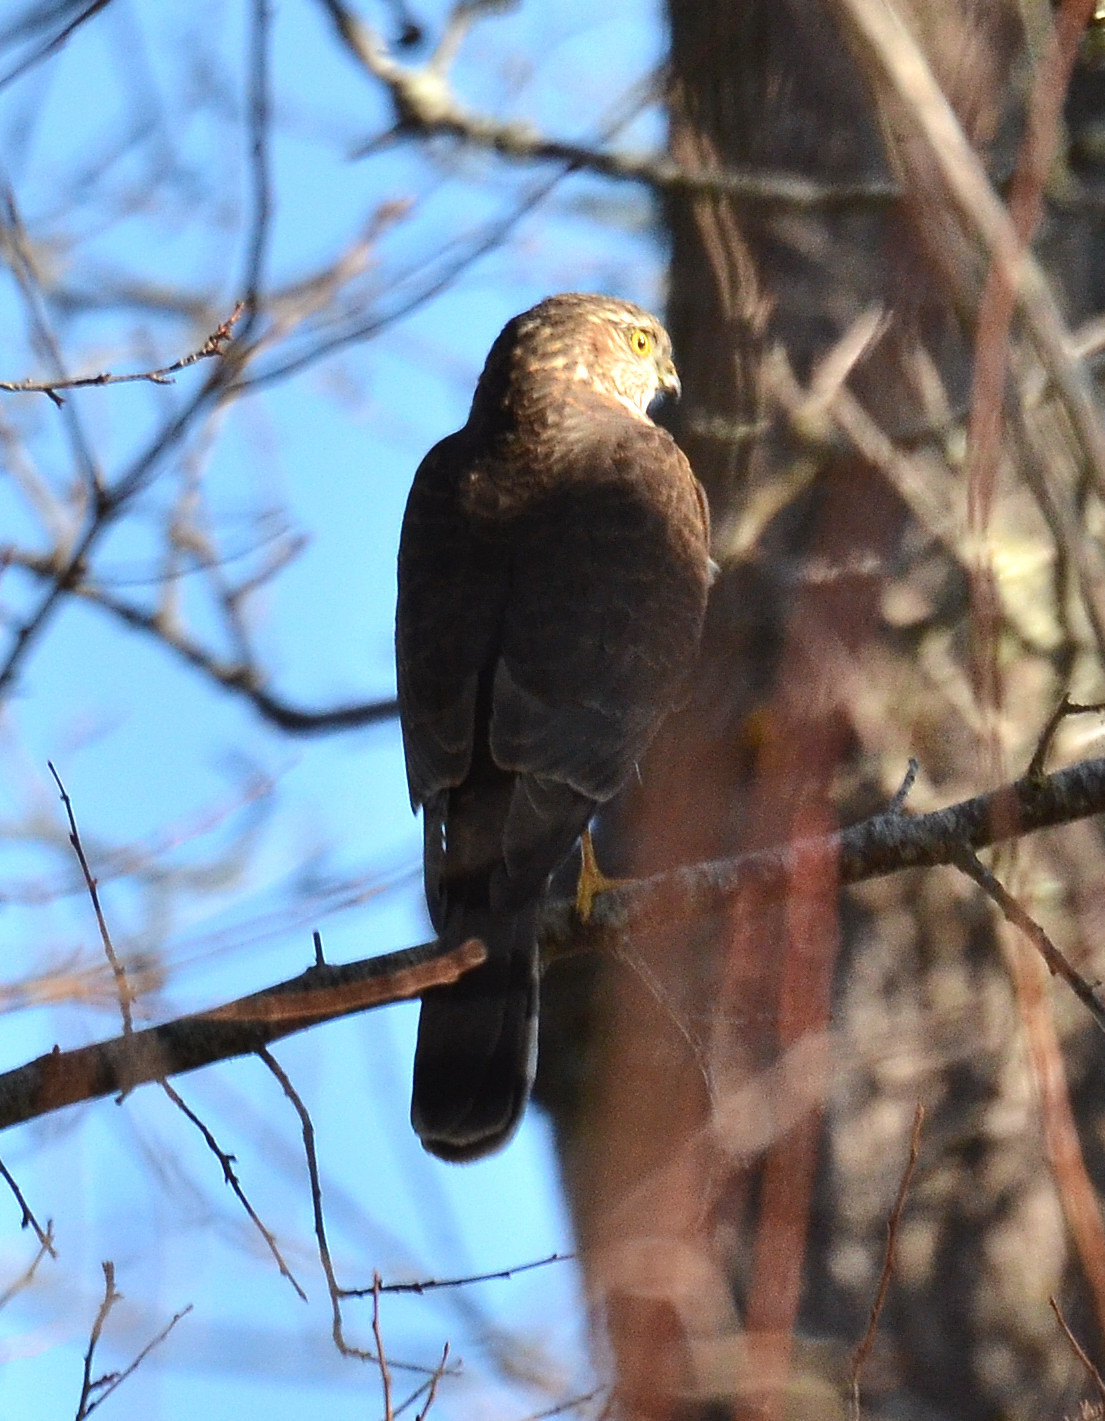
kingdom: Animalia
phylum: Chordata
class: Aves
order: Accipitriformes
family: Accipitridae
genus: Accipiter
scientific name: Accipiter striatus
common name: Sharp-shinned hawk
